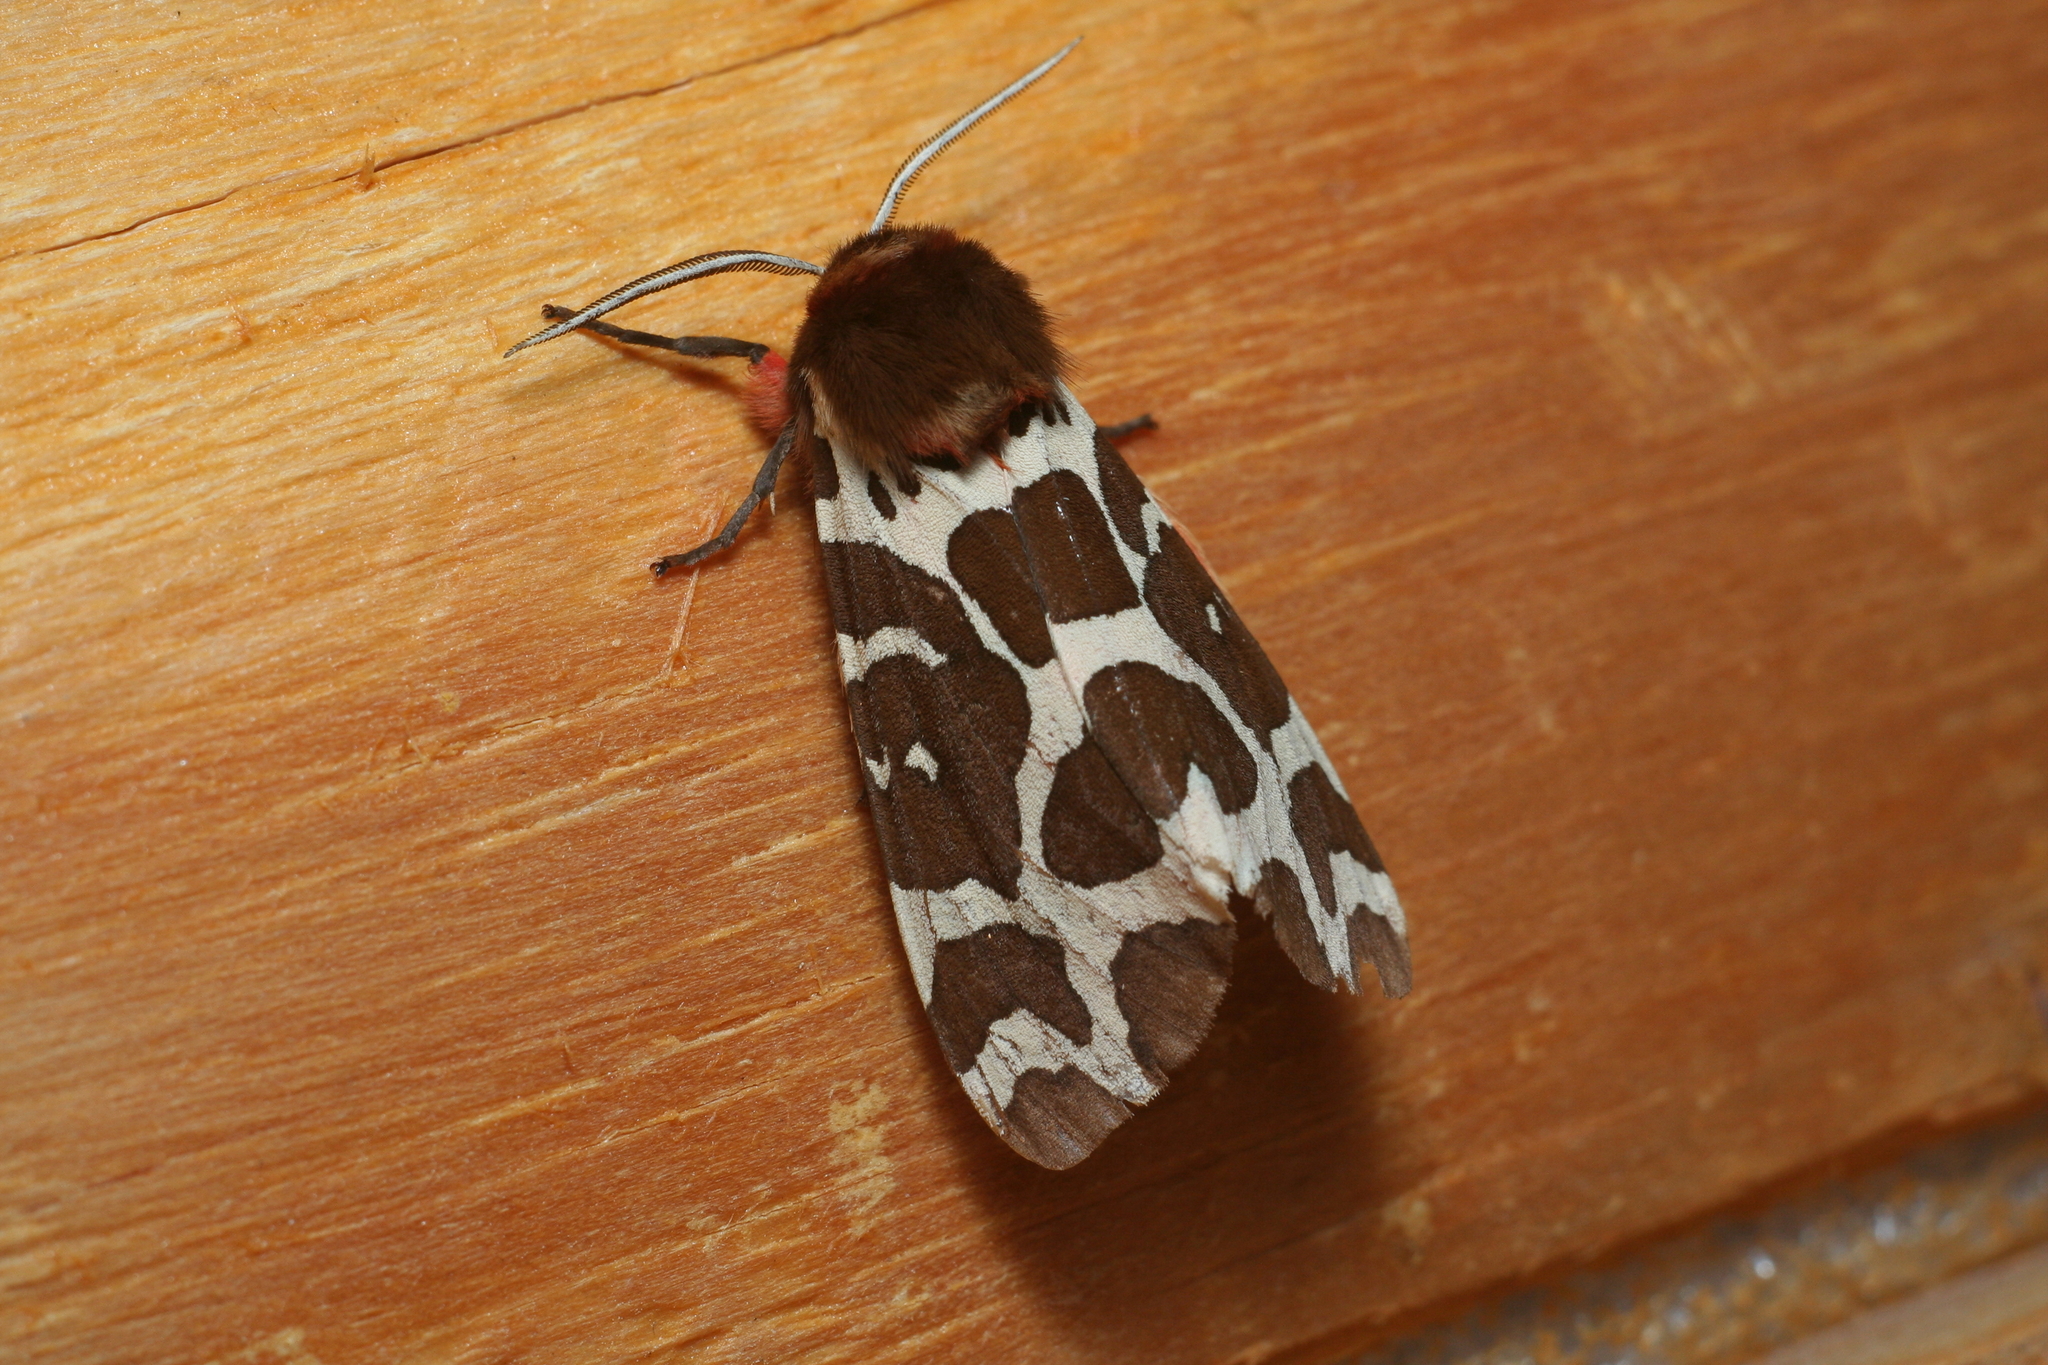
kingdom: Animalia
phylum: Arthropoda
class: Insecta
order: Lepidoptera
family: Erebidae
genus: Arctia
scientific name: Arctia caja
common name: Garden tiger
